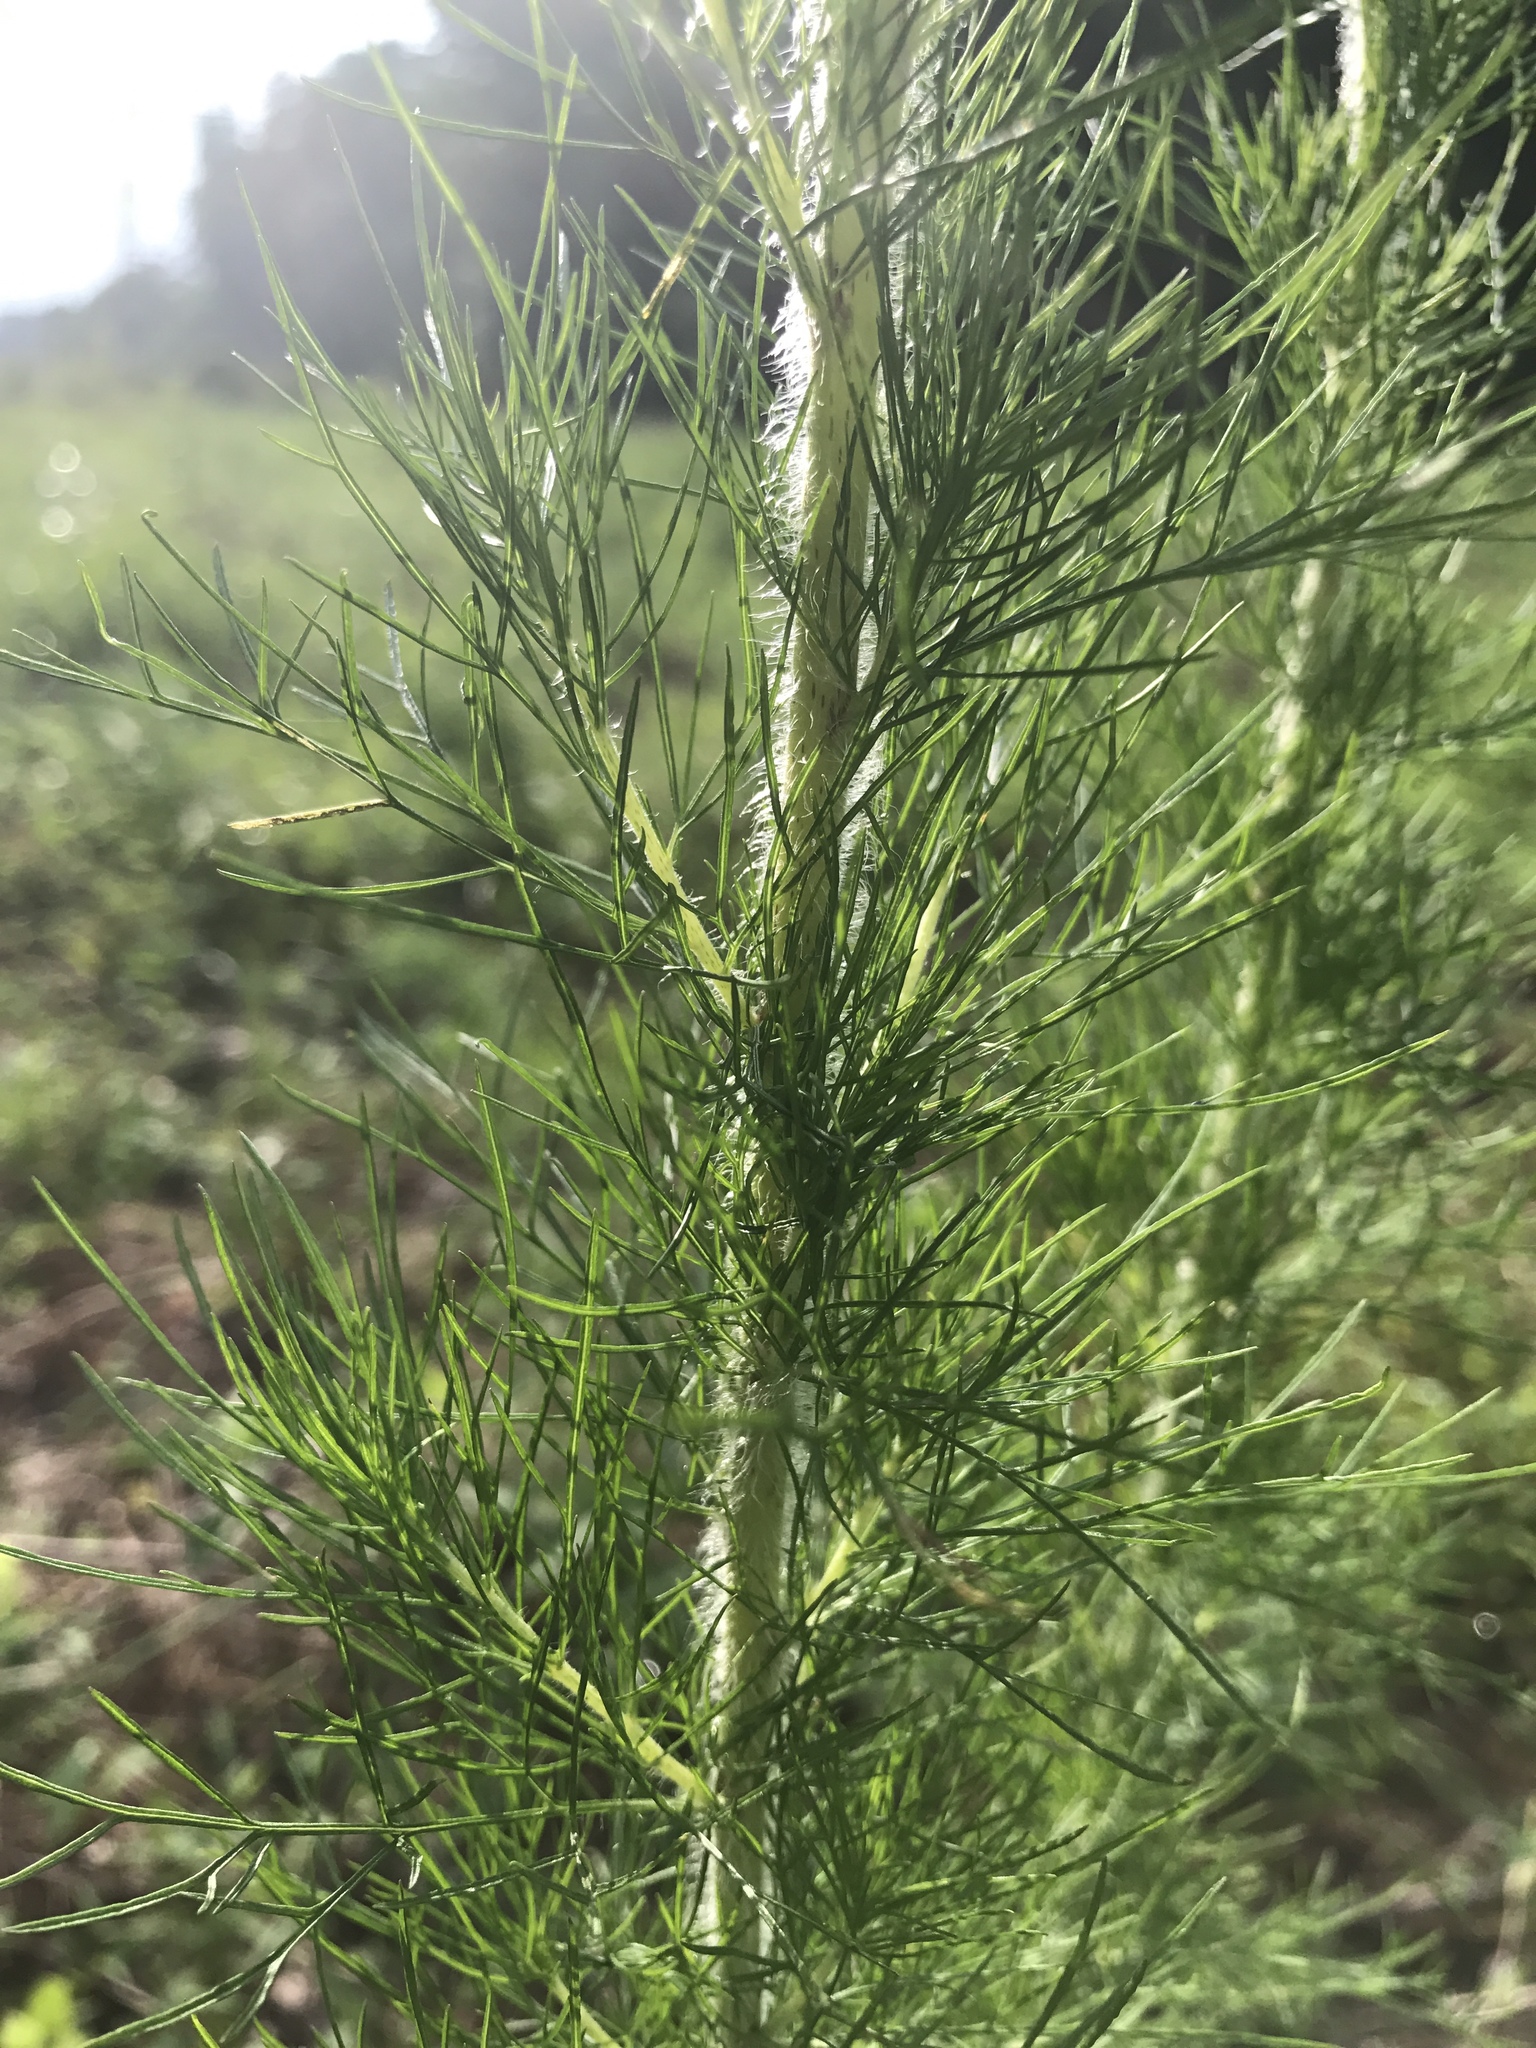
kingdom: Plantae
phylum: Tracheophyta
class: Magnoliopsida
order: Asterales
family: Asteraceae
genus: Eupatorium
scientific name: Eupatorium capillifolium
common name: Dog-fennel
